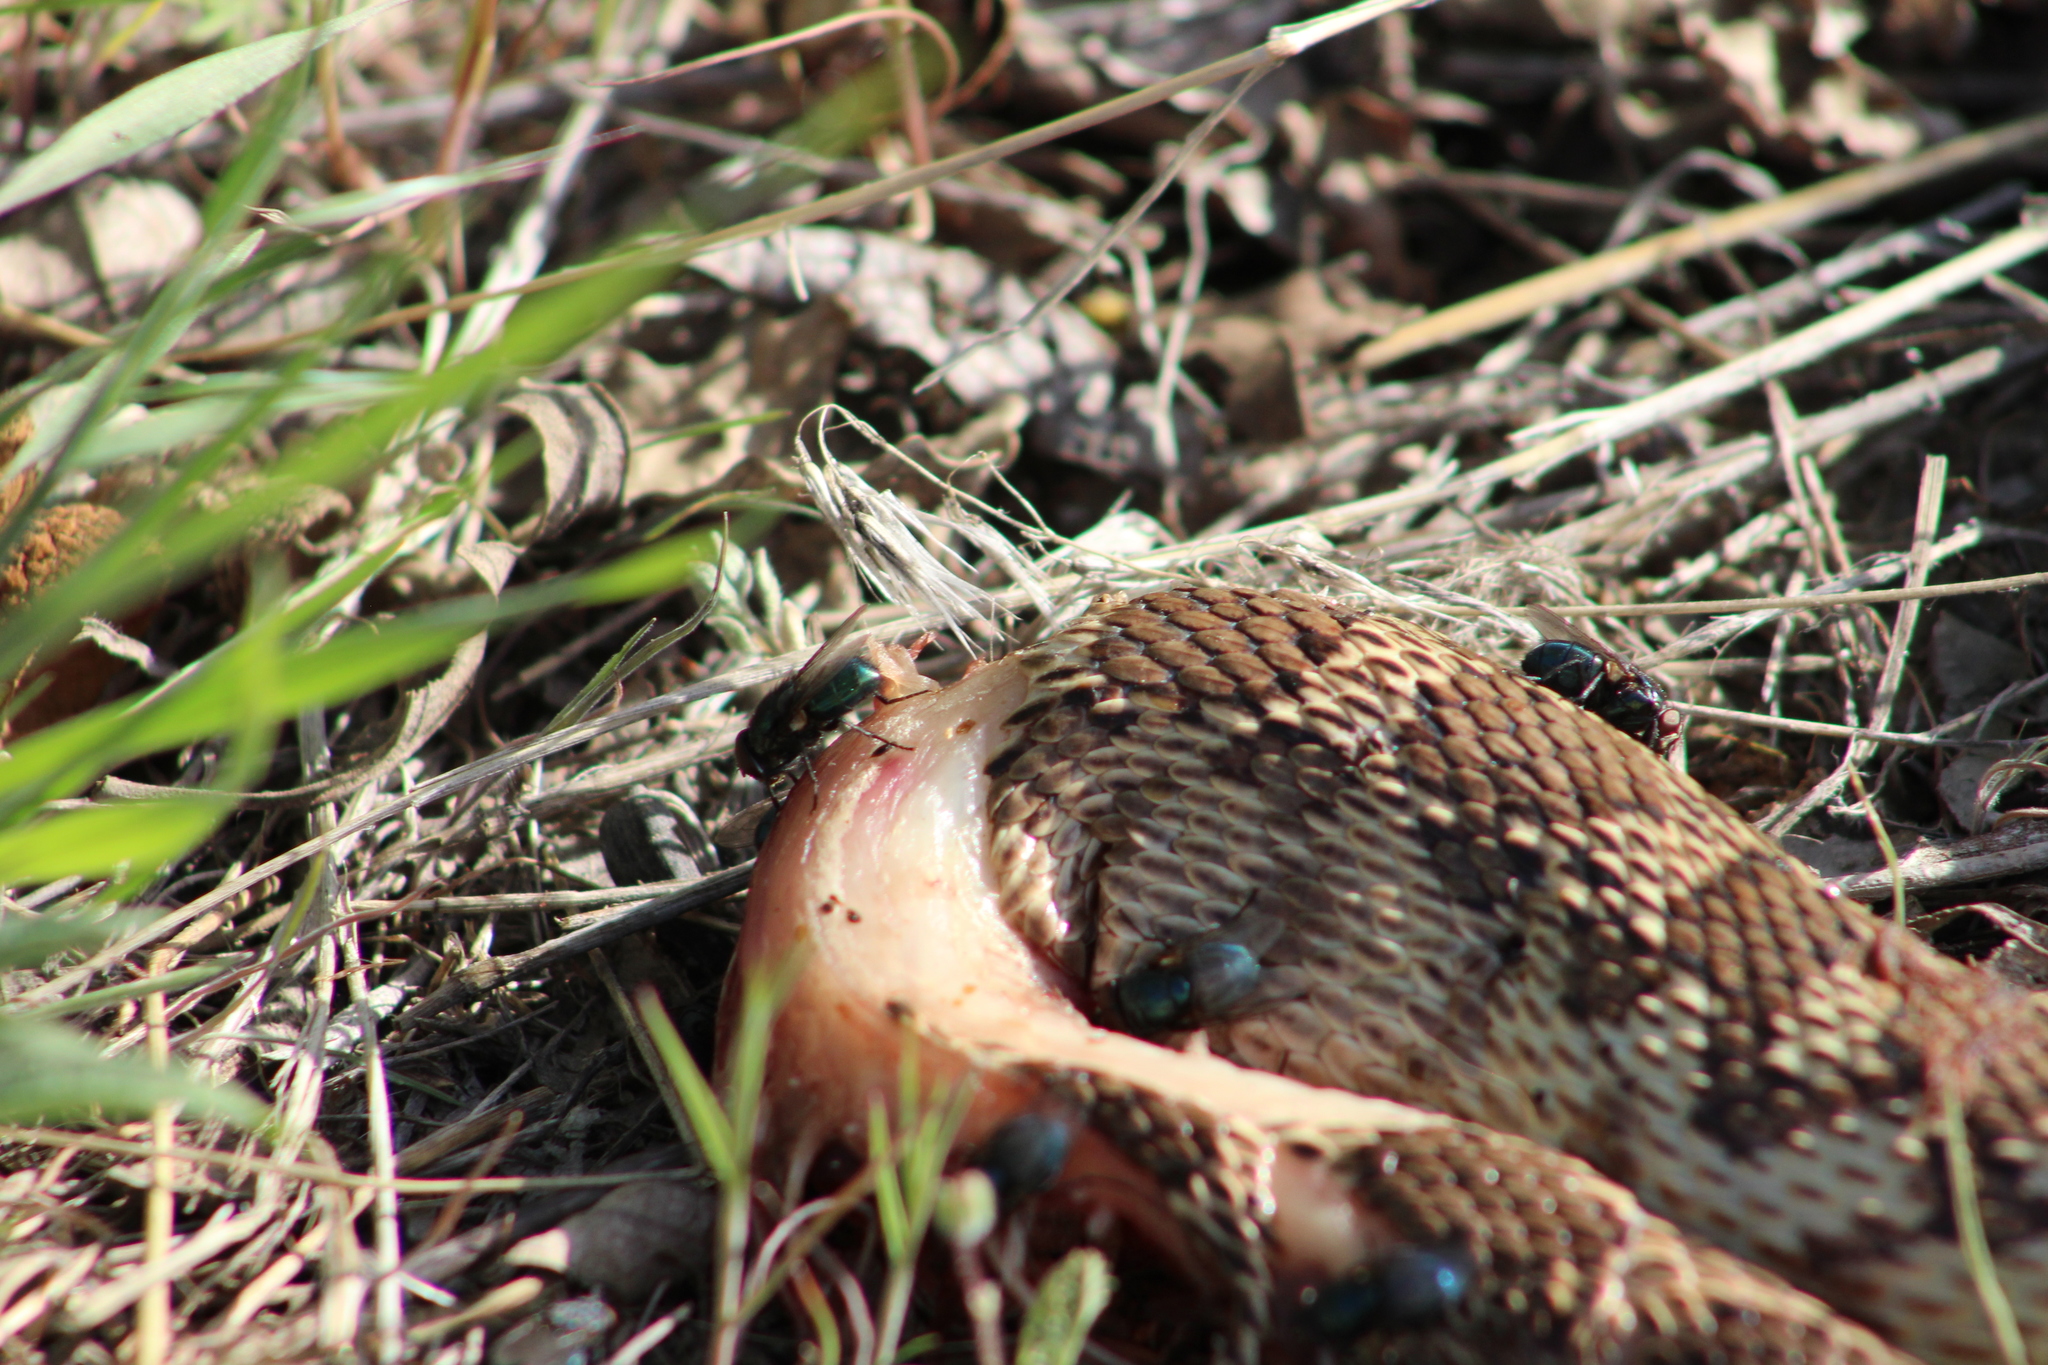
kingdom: Animalia
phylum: Chordata
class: Squamata
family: Colubridae
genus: Pituophis
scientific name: Pituophis catenifer
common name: Gopher snake
